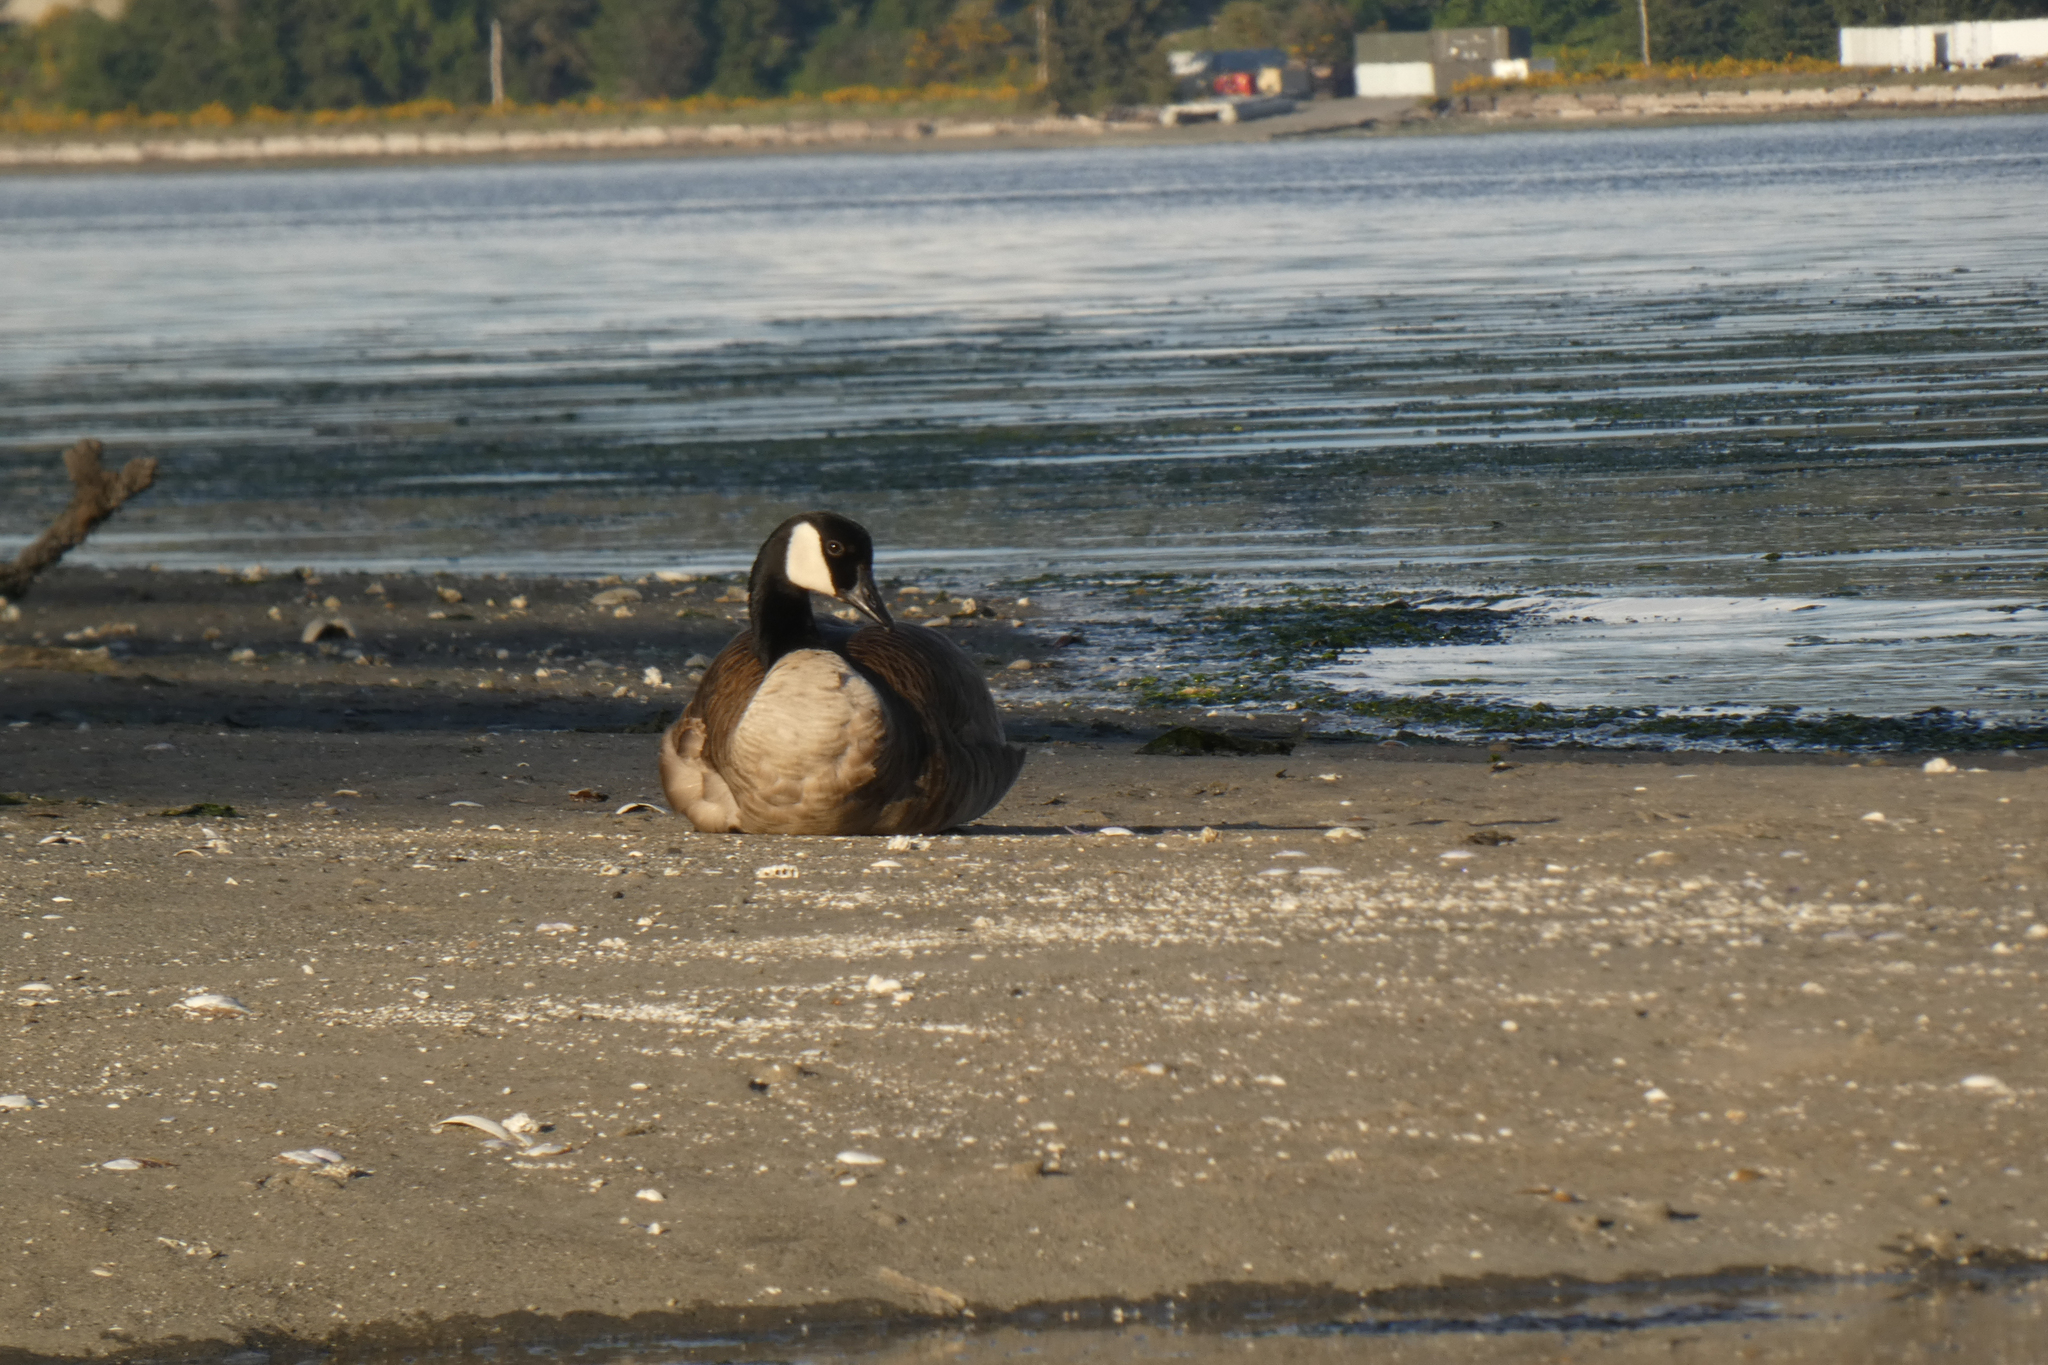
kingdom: Animalia
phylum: Chordata
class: Aves
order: Anseriformes
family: Anatidae
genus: Branta
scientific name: Branta canadensis
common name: Canada goose
